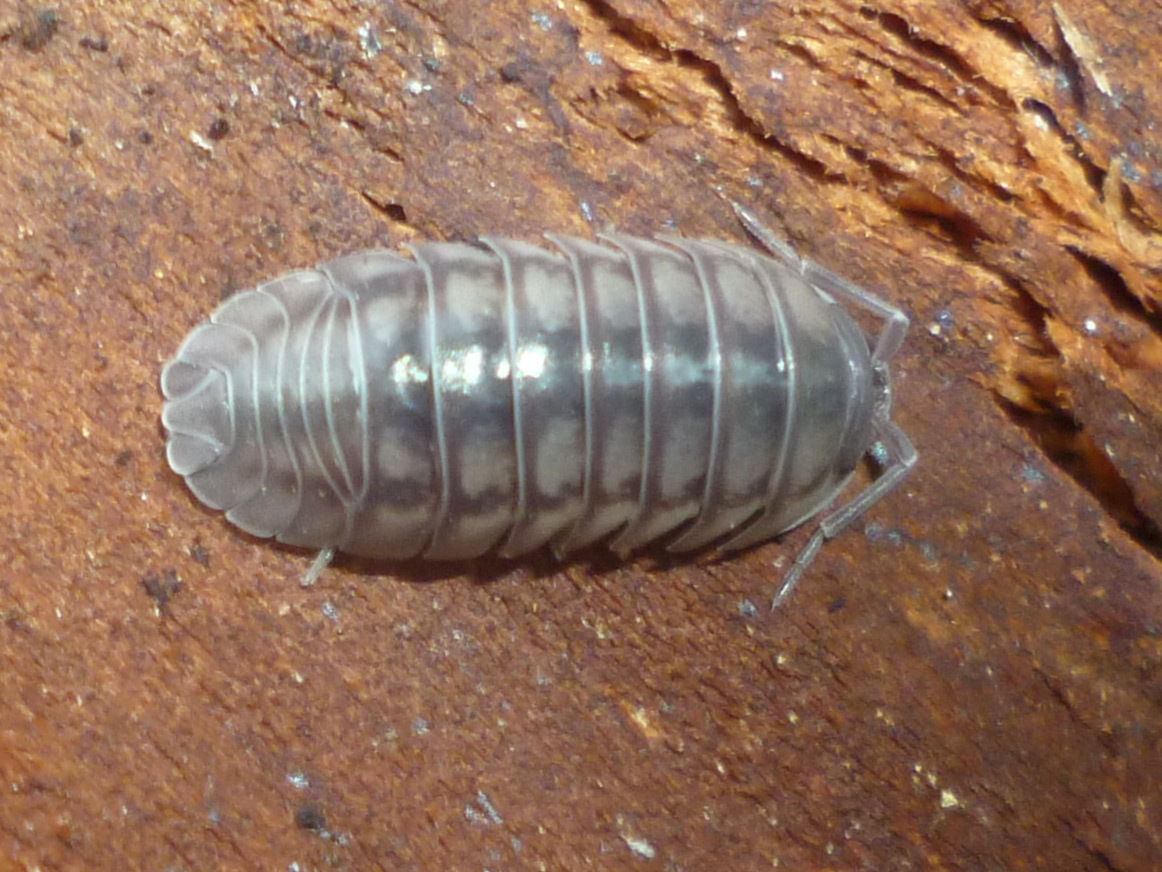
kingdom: Animalia
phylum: Arthropoda
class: Malacostraca
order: Isopoda
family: Armadillidiidae
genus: Armadillidium
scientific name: Armadillidium nasatum
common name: Isopod
